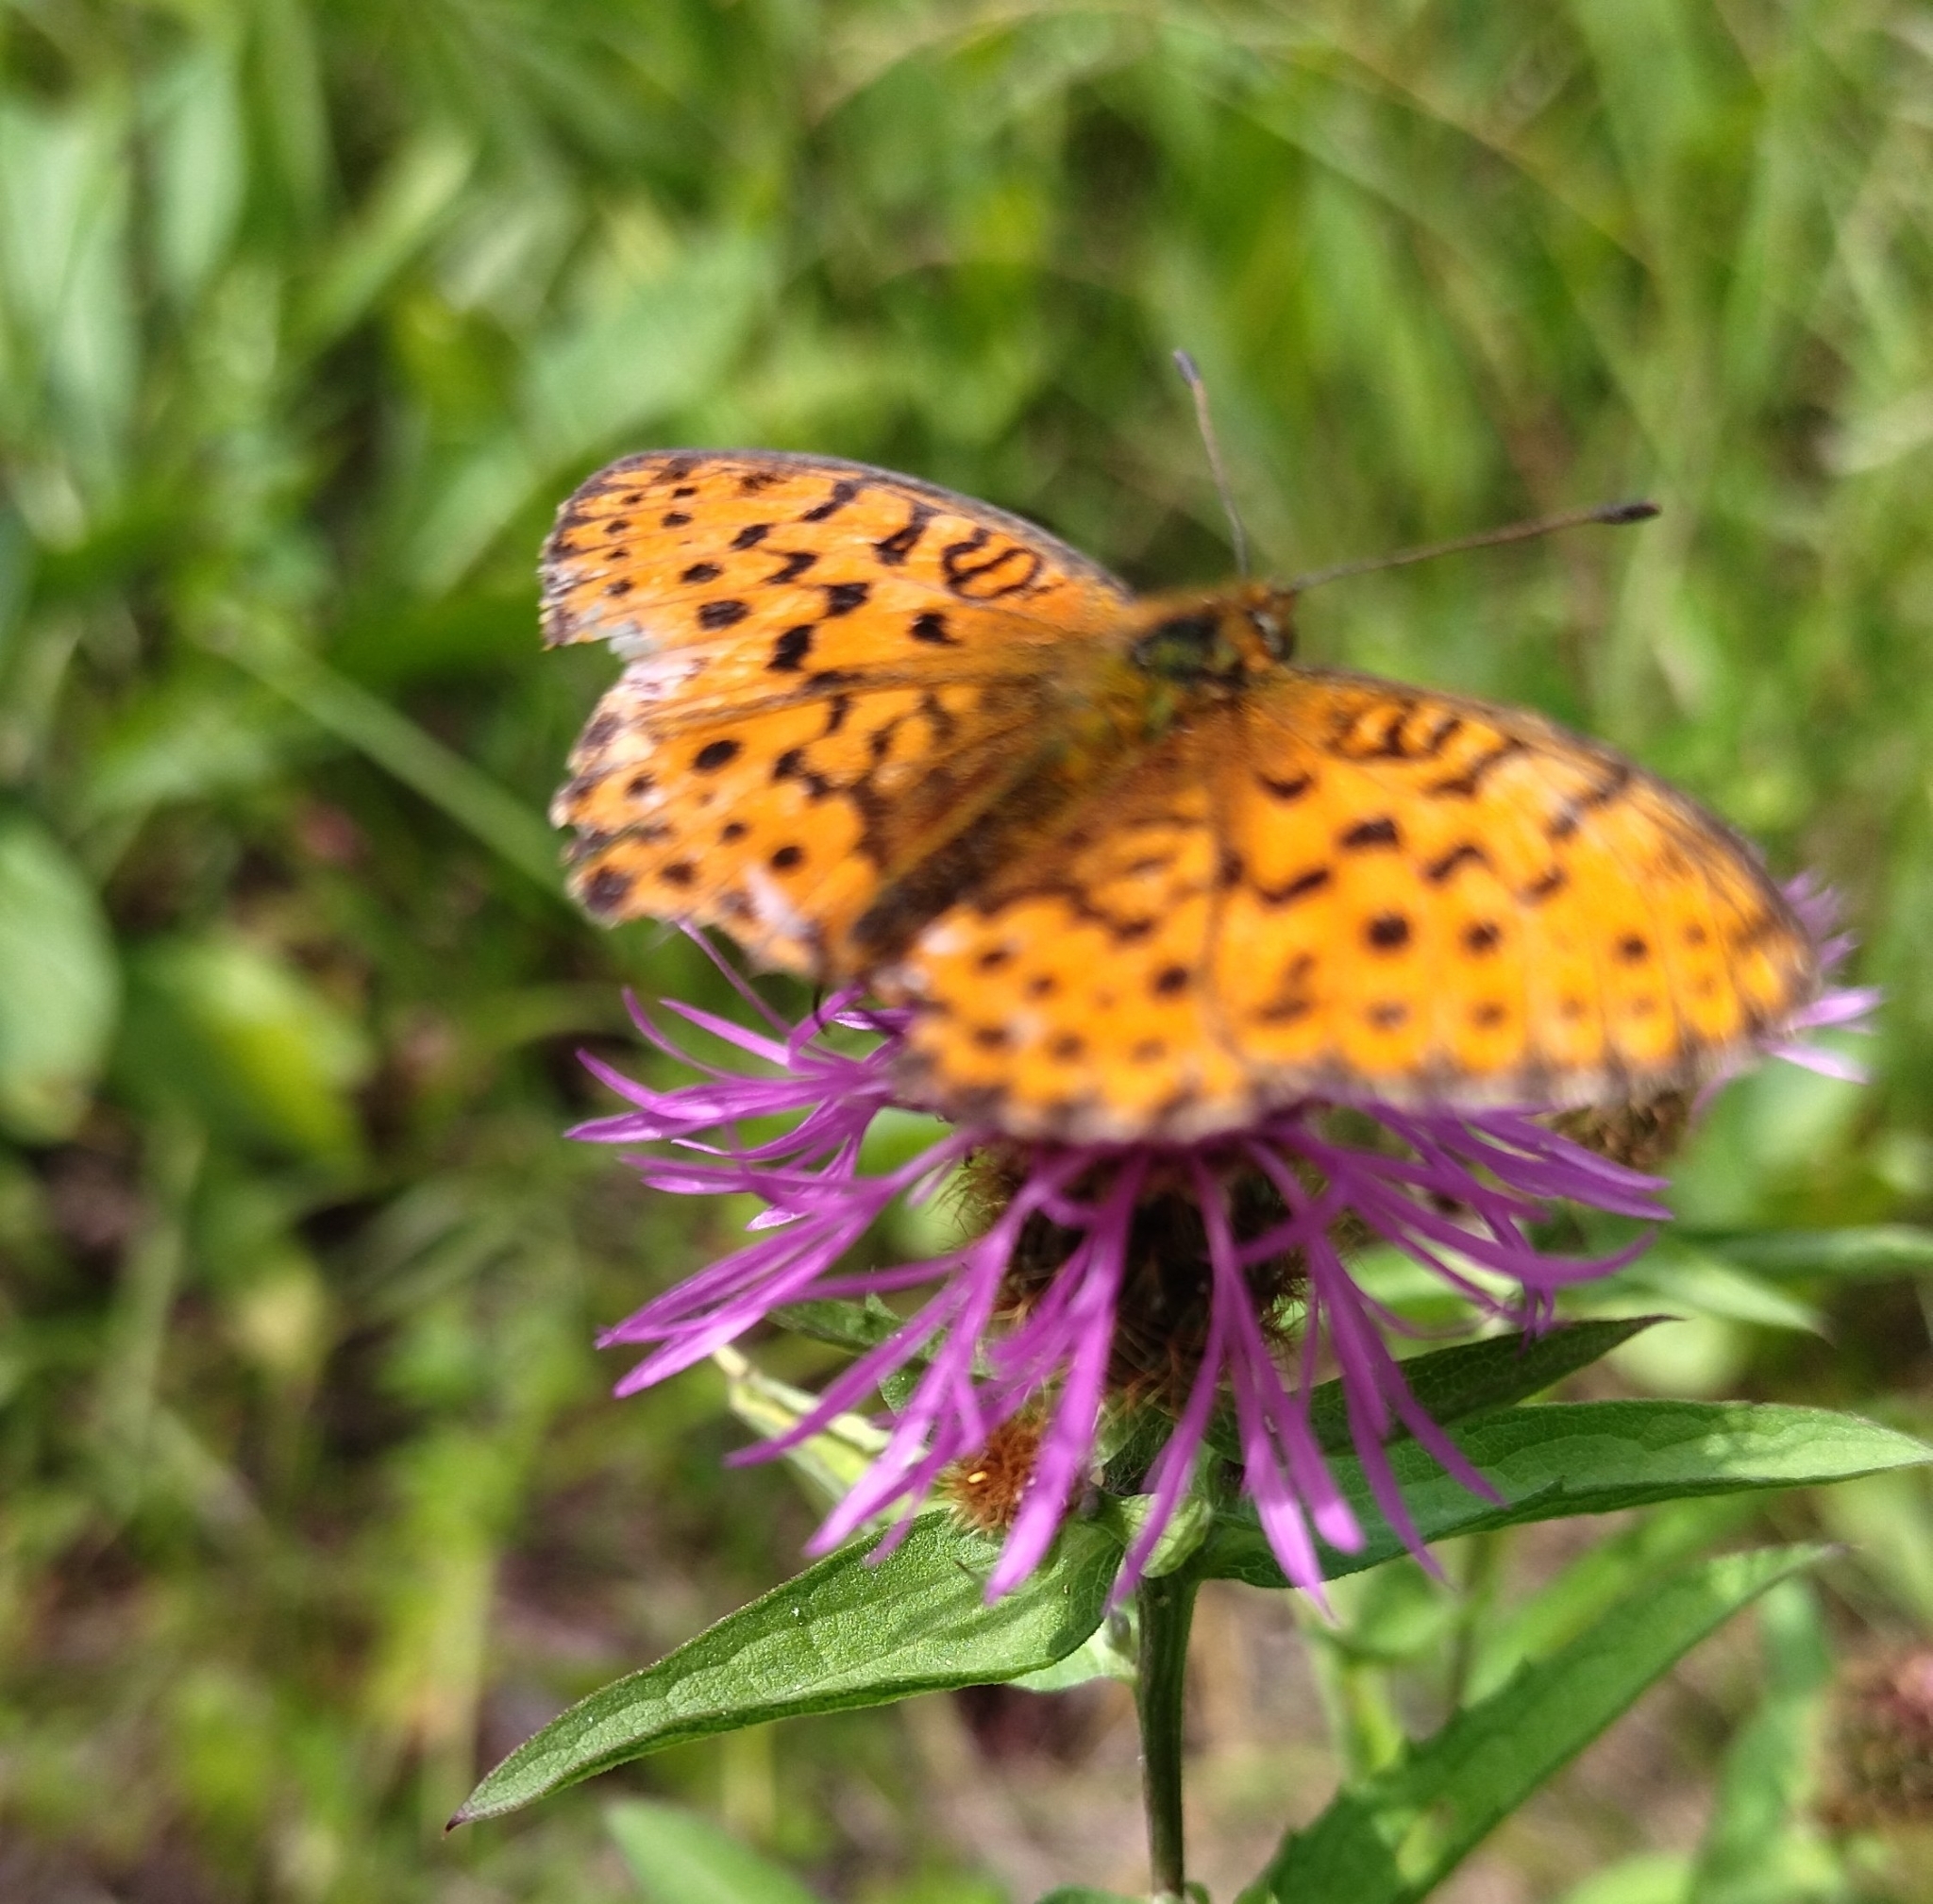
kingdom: Animalia
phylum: Arthropoda
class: Insecta
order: Lepidoptera
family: Nymphalidae
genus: Brenthis
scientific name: Brenthis daphne
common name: Marbled fritillary
